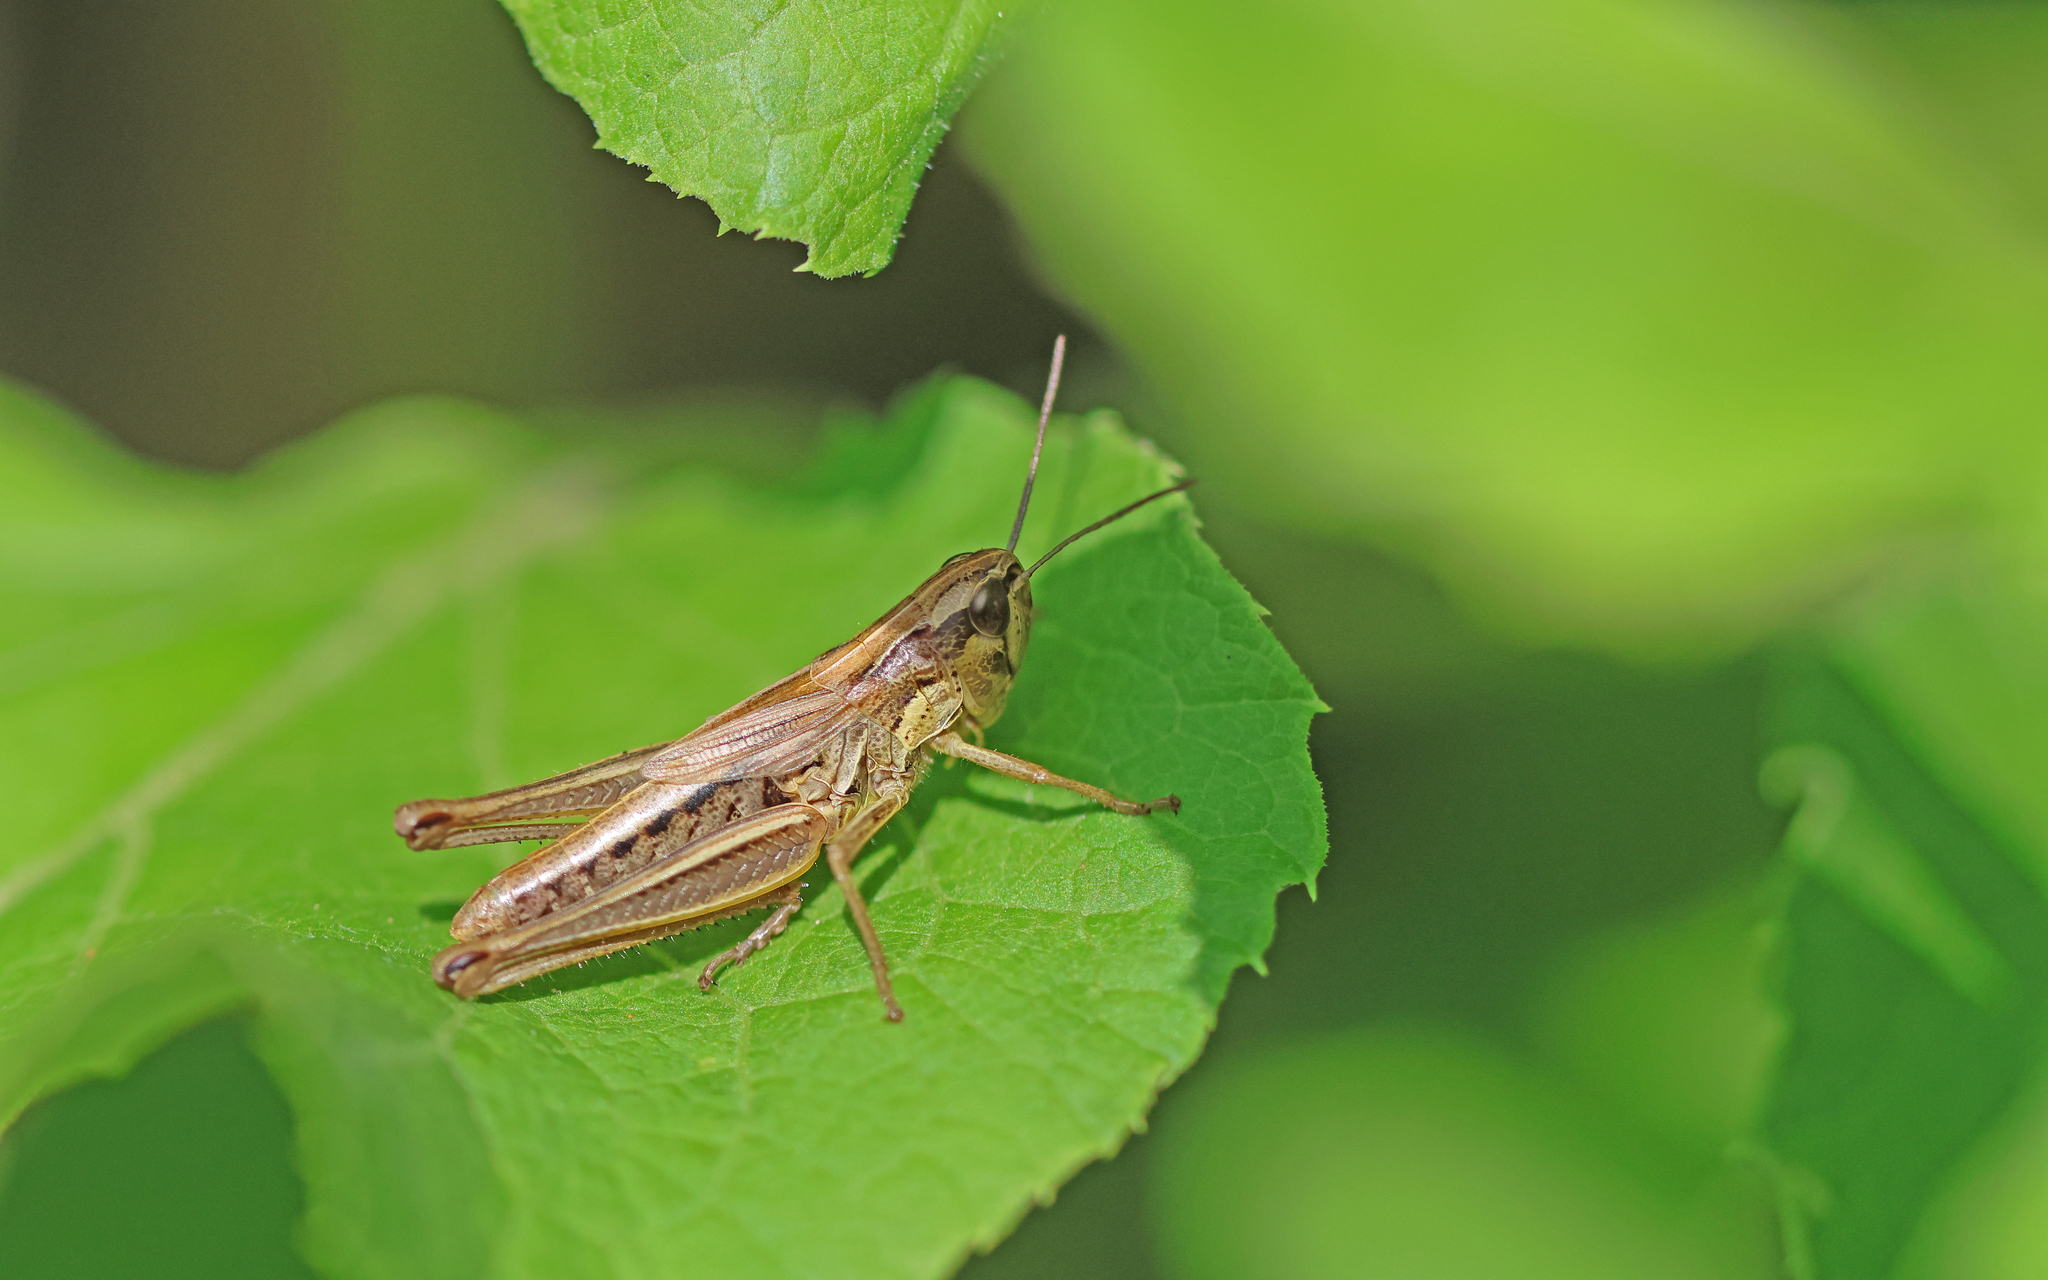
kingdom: Animalia
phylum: Arthropoda
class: Insecta
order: Orthoptera
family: Acrididae
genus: Pseudochorthippus
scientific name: Pseudochorthippus parallelus
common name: Meadow grasshopper
